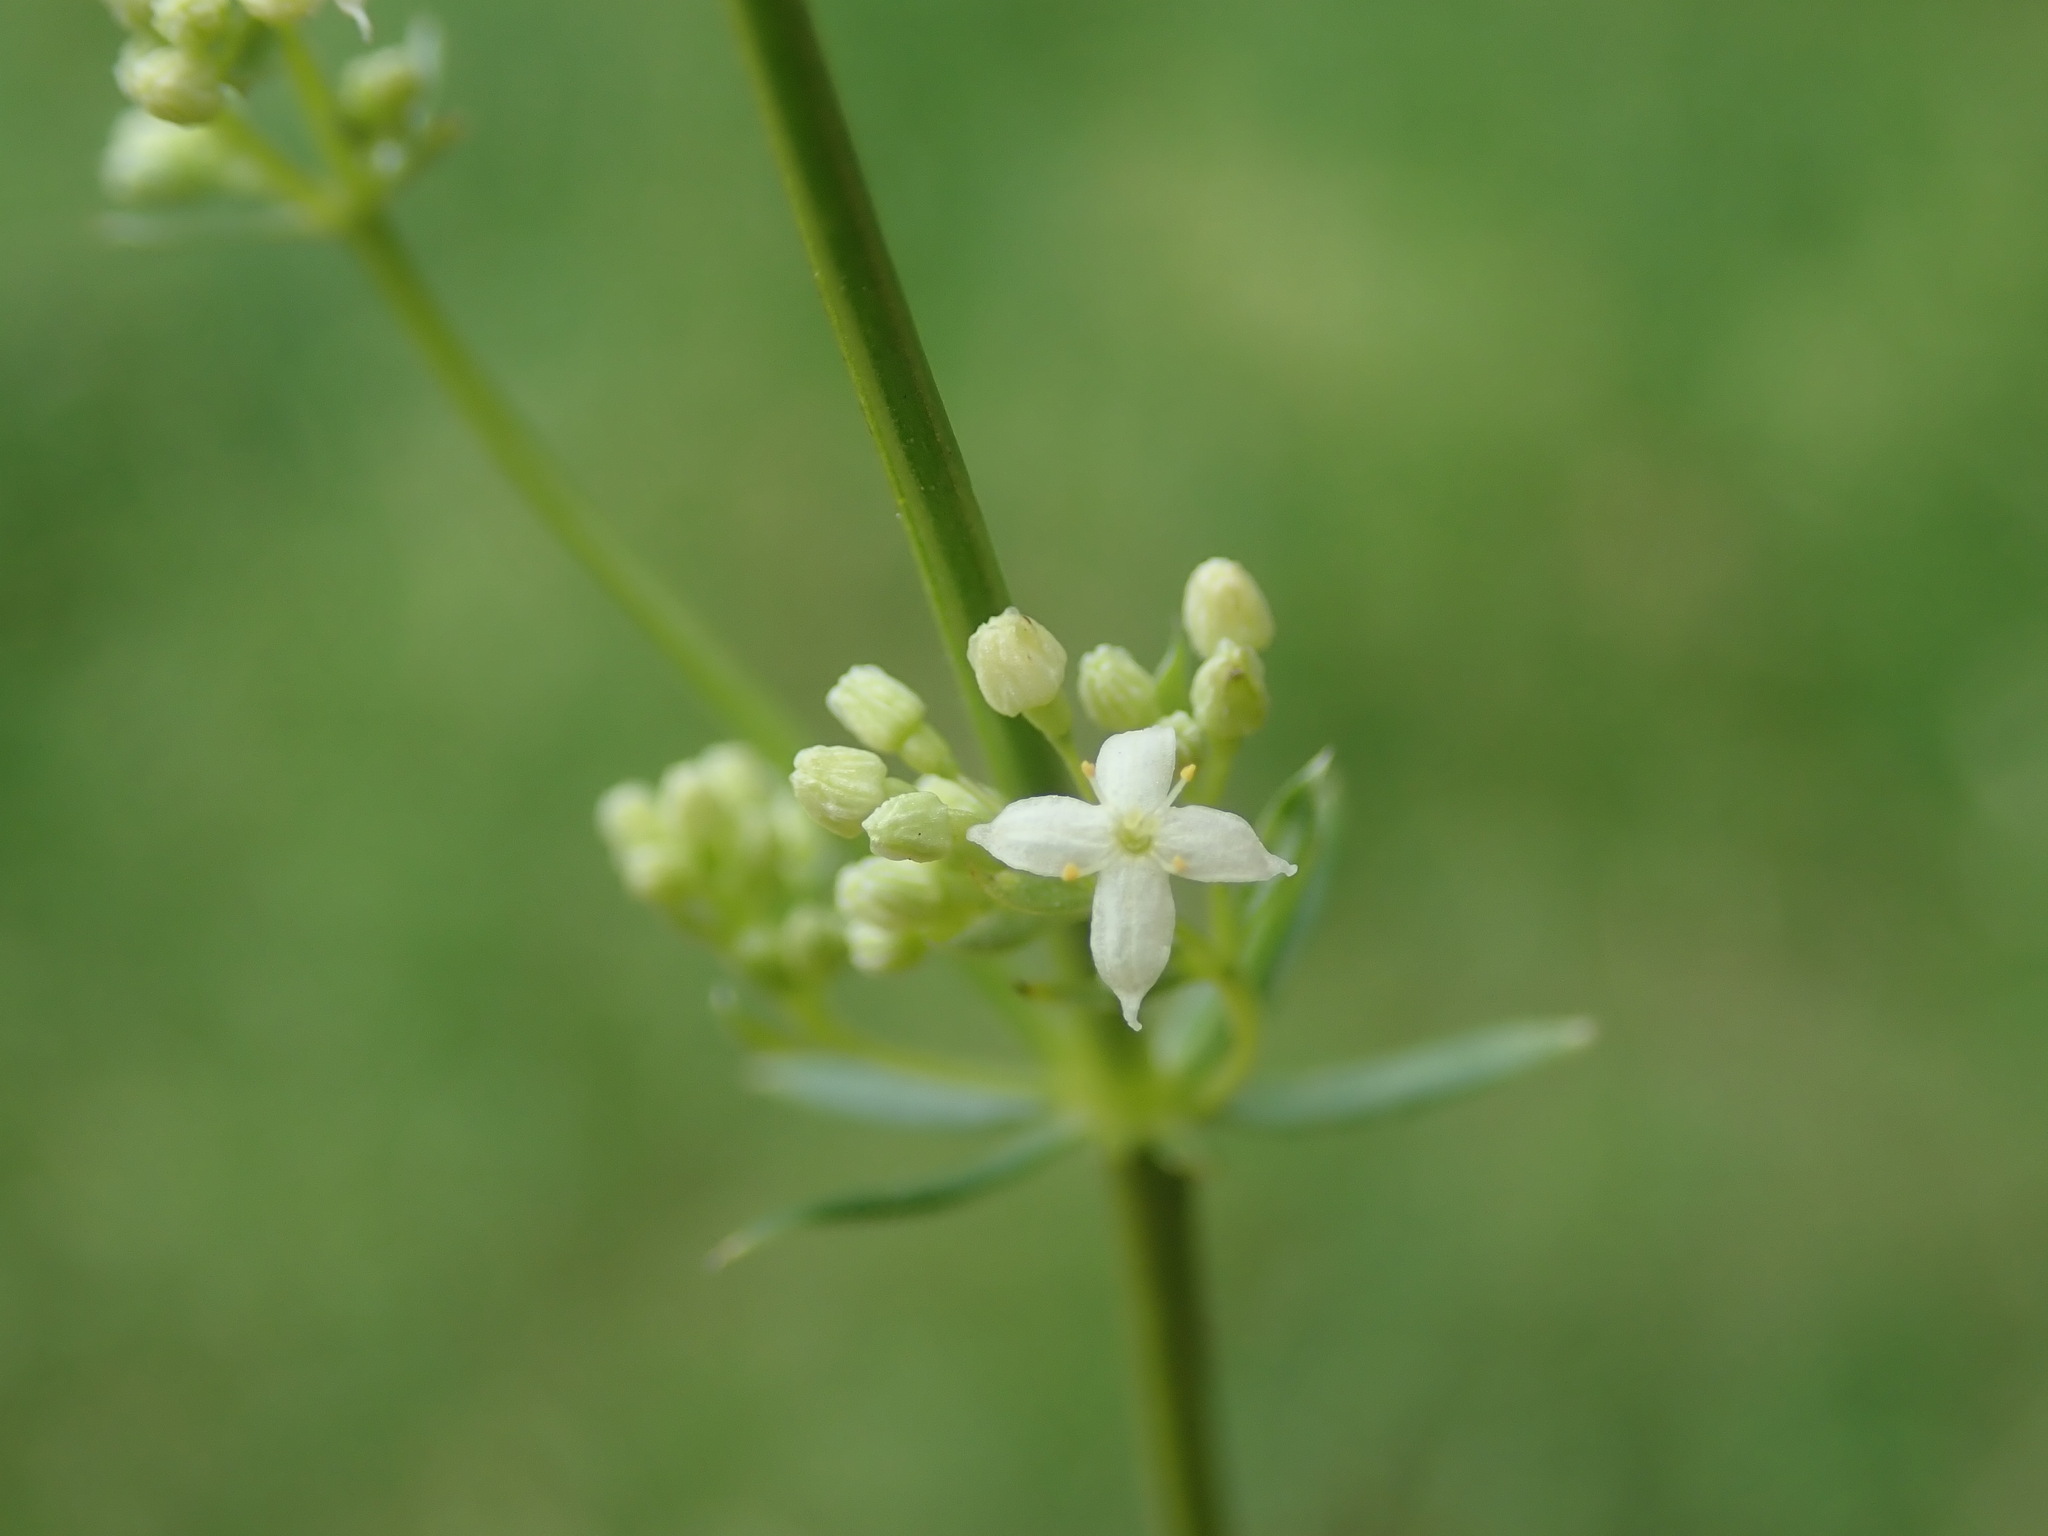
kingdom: Plantae
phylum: Tracheophyta
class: Magnoliopsida
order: Gentianales
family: Rubiaceae
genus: Galium
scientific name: Galium album
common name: White bedstraw
